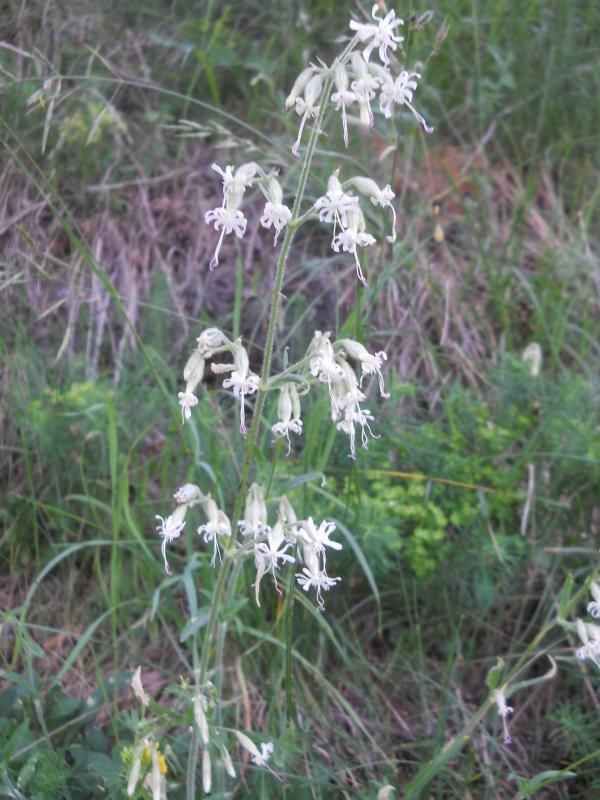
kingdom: Plantae
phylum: Tracheophyta
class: Magnoliopsida
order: Caryophyllales
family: Caryophyllaceae
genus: Silene
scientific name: Silene nutans
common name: Nottingham catchfly
